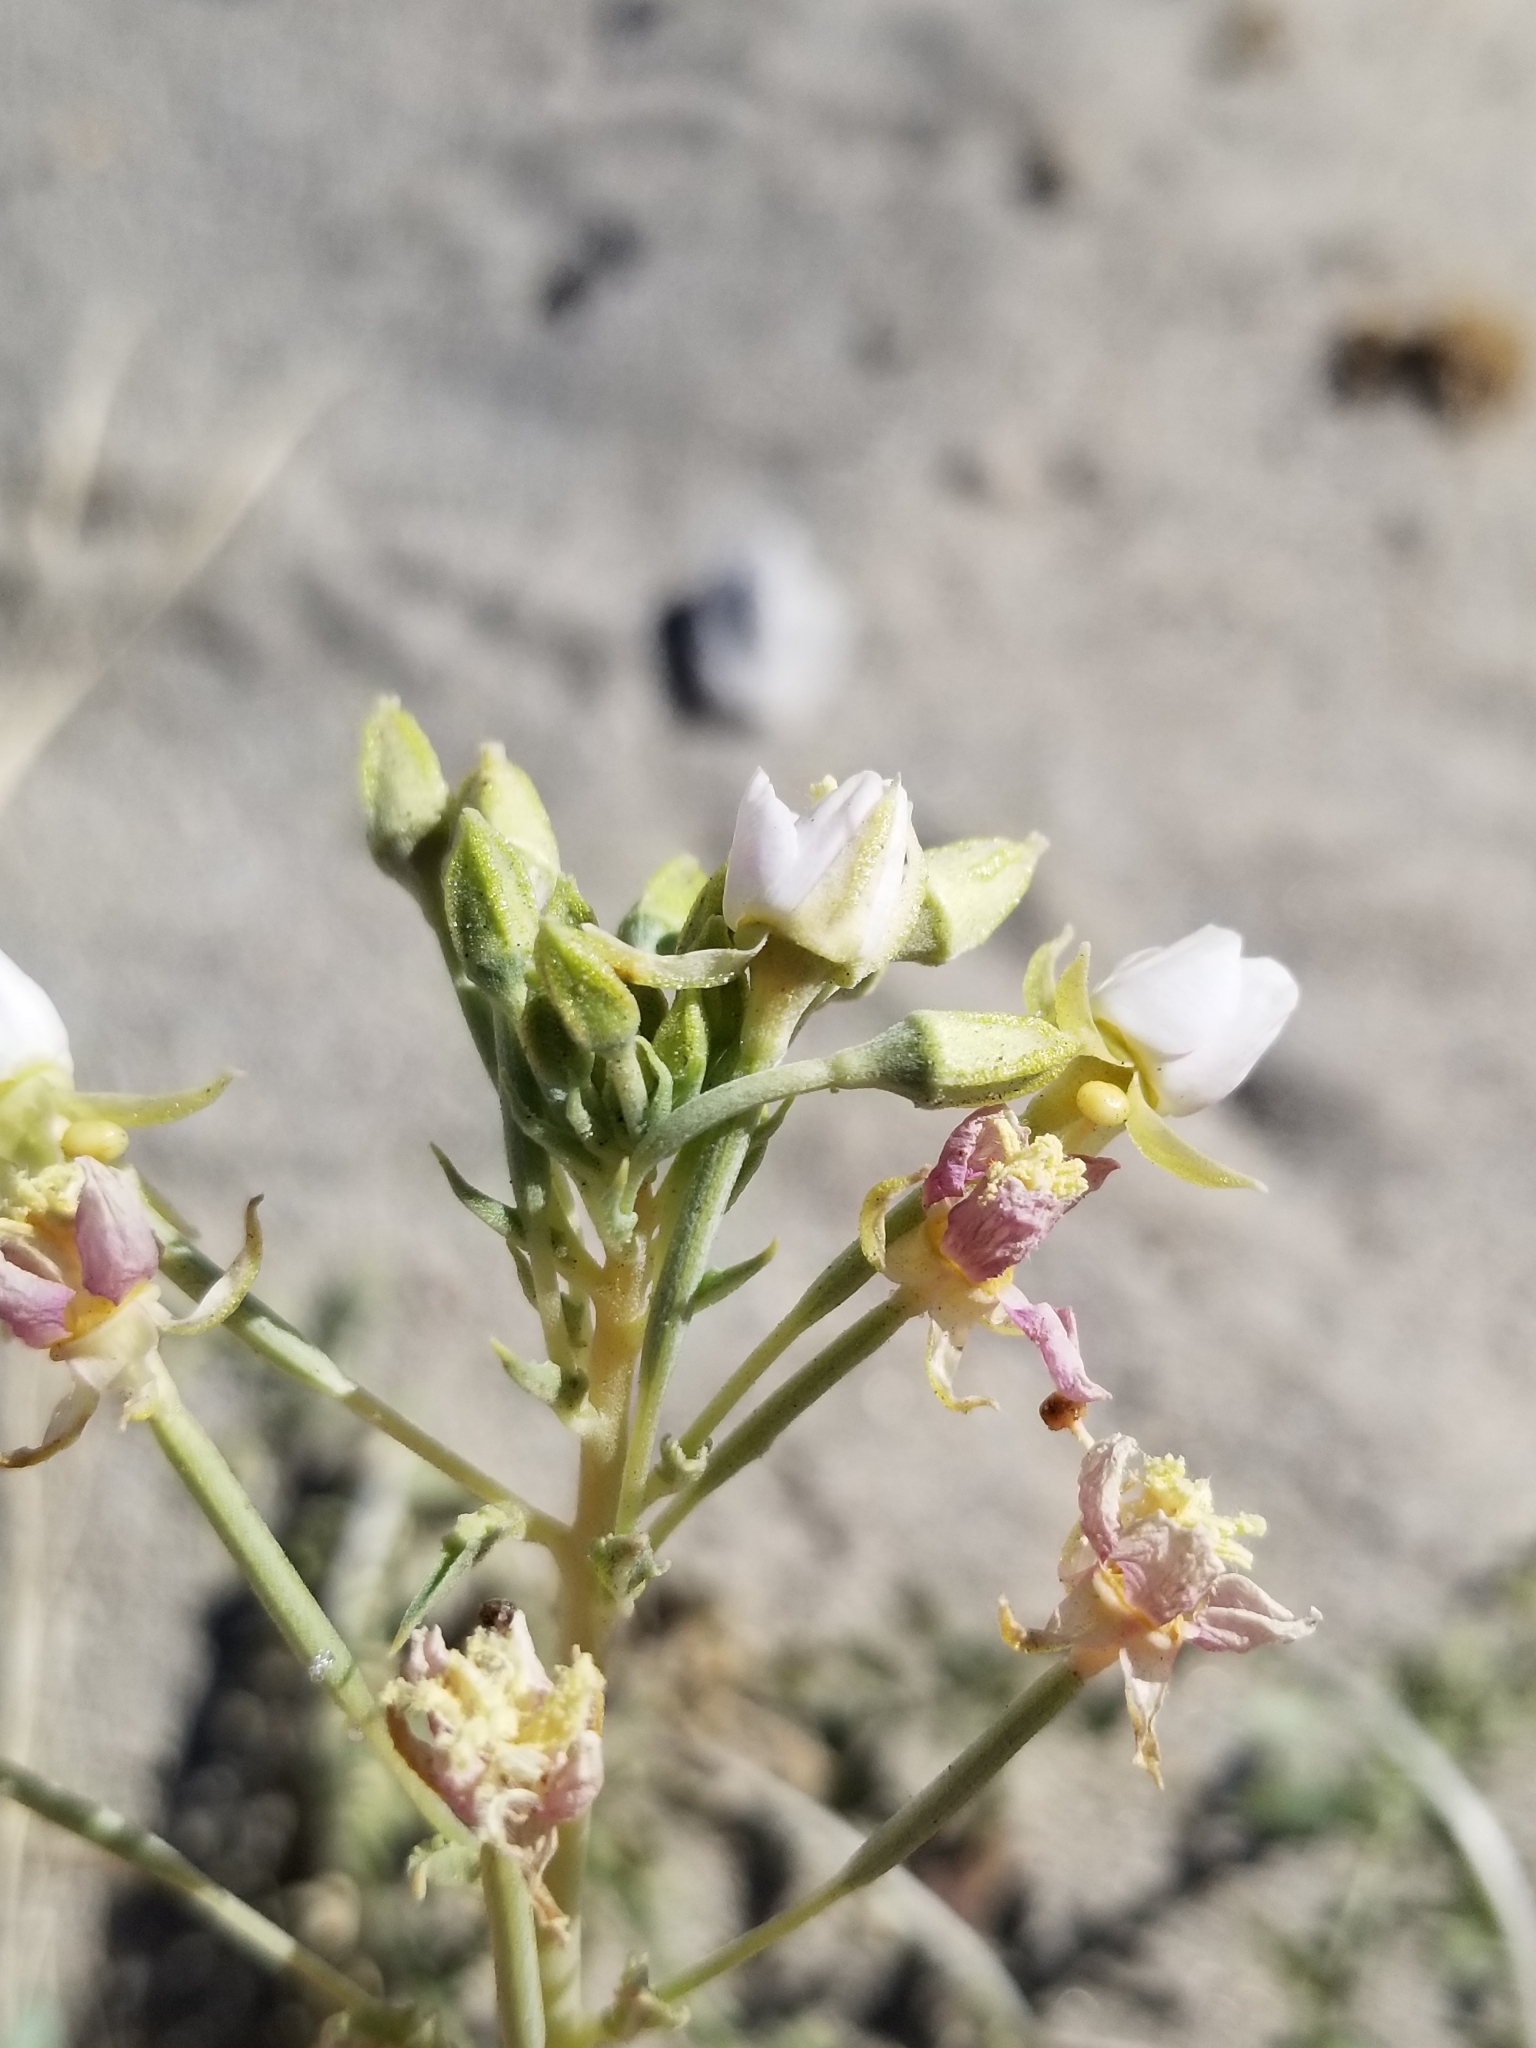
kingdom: Plantae
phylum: Tracheophyta
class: Magnoliopsida
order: Myrtales
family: Onagraceae
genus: Chylismia
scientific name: Chylismia claviformis
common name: Browneyes
